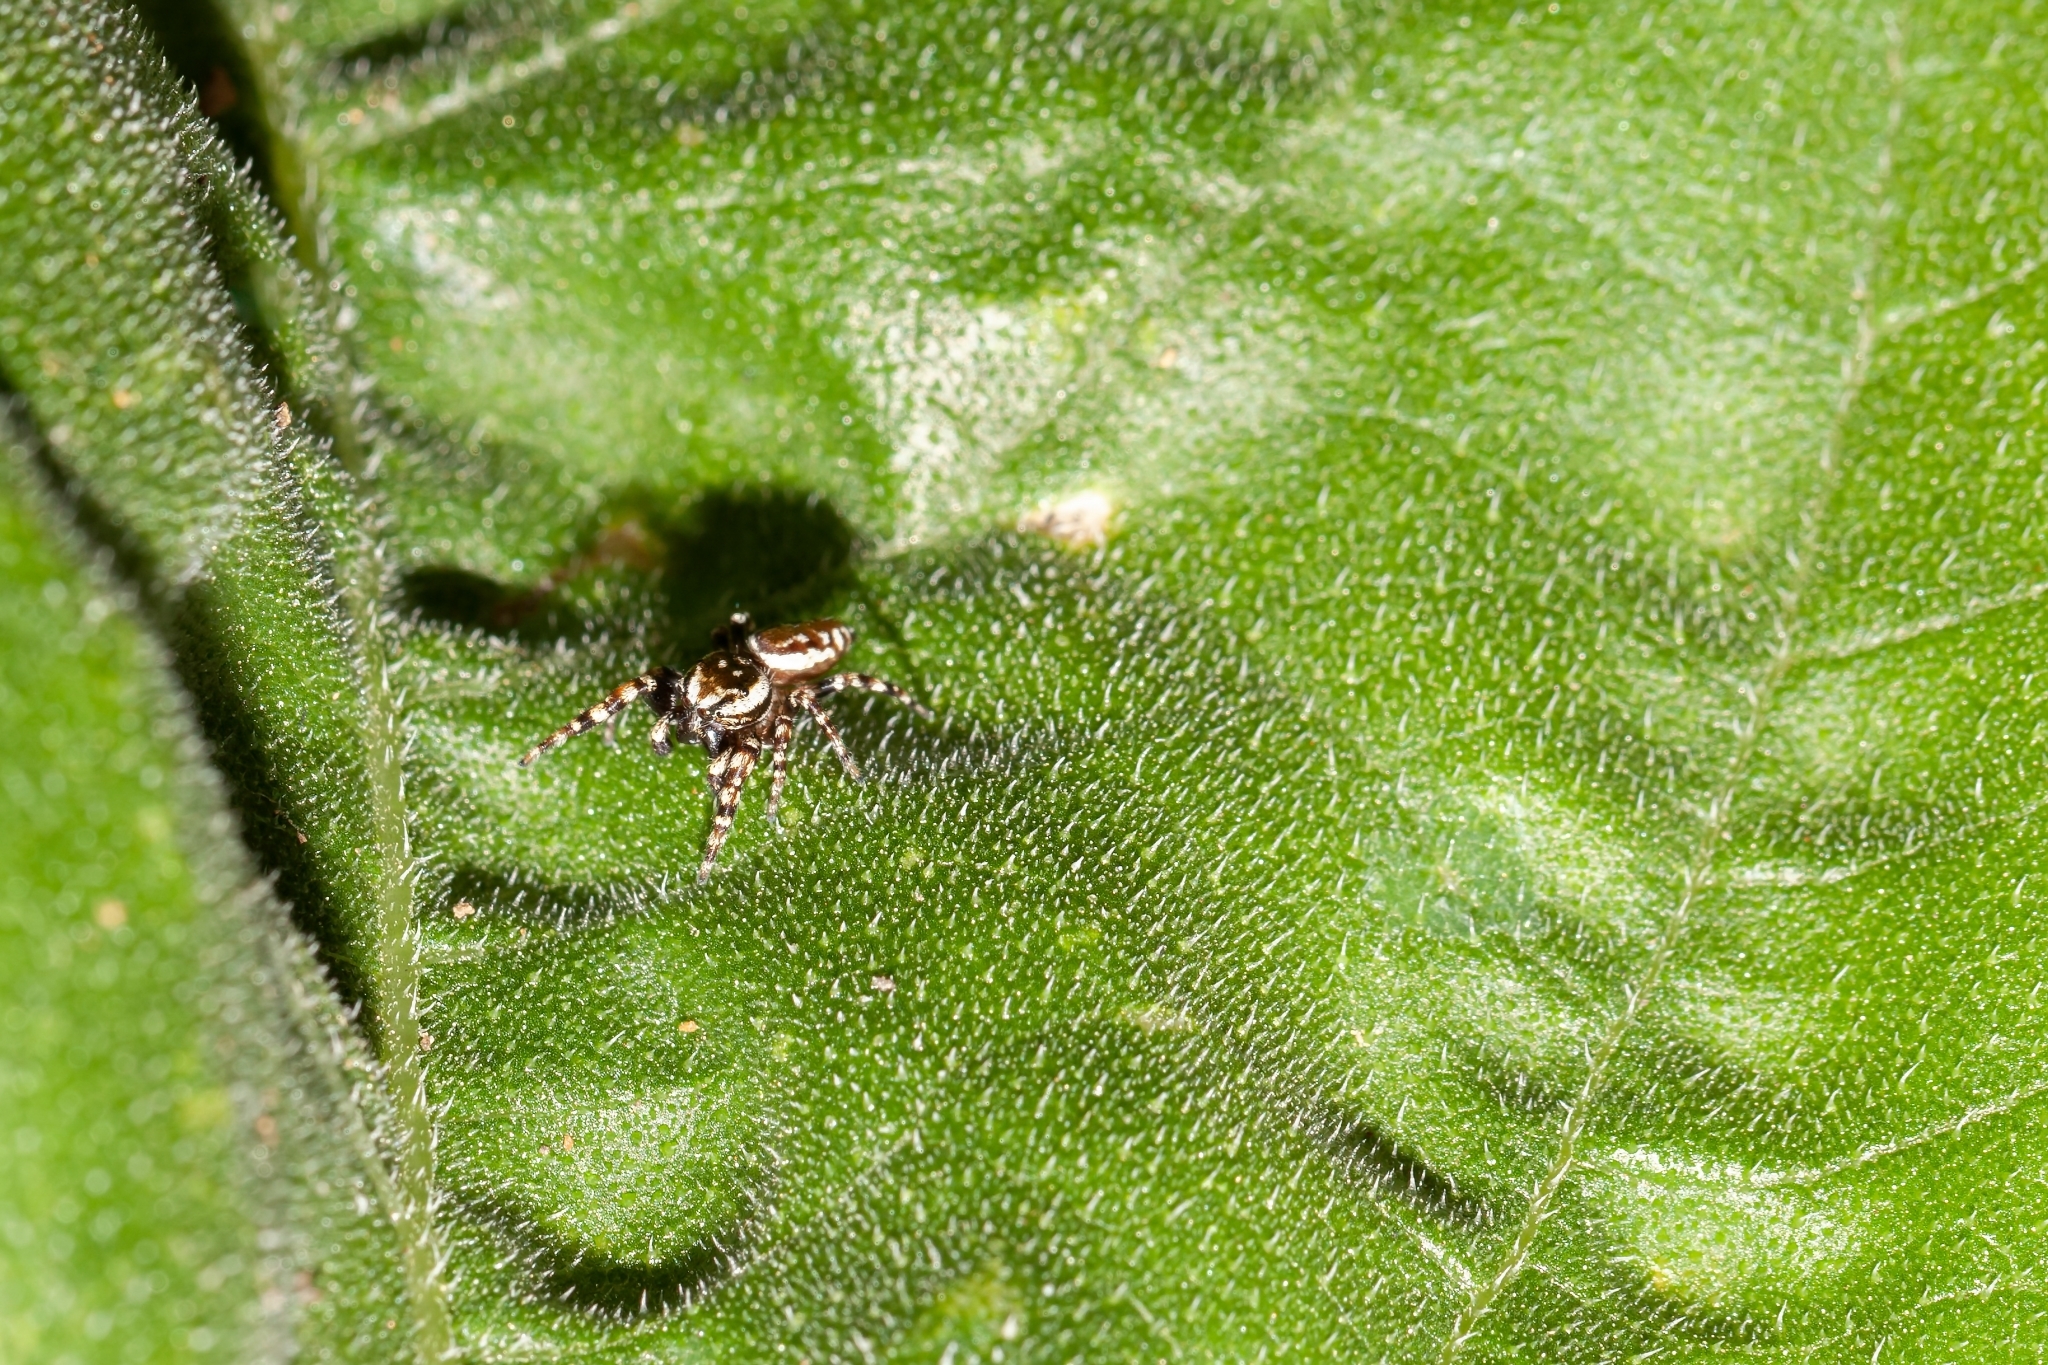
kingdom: Animalia
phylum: Arthropoda
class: Arachnida
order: Araneae
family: Salticidae
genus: Pelegrina
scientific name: Pelegrina galathea
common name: Jumping spiders
